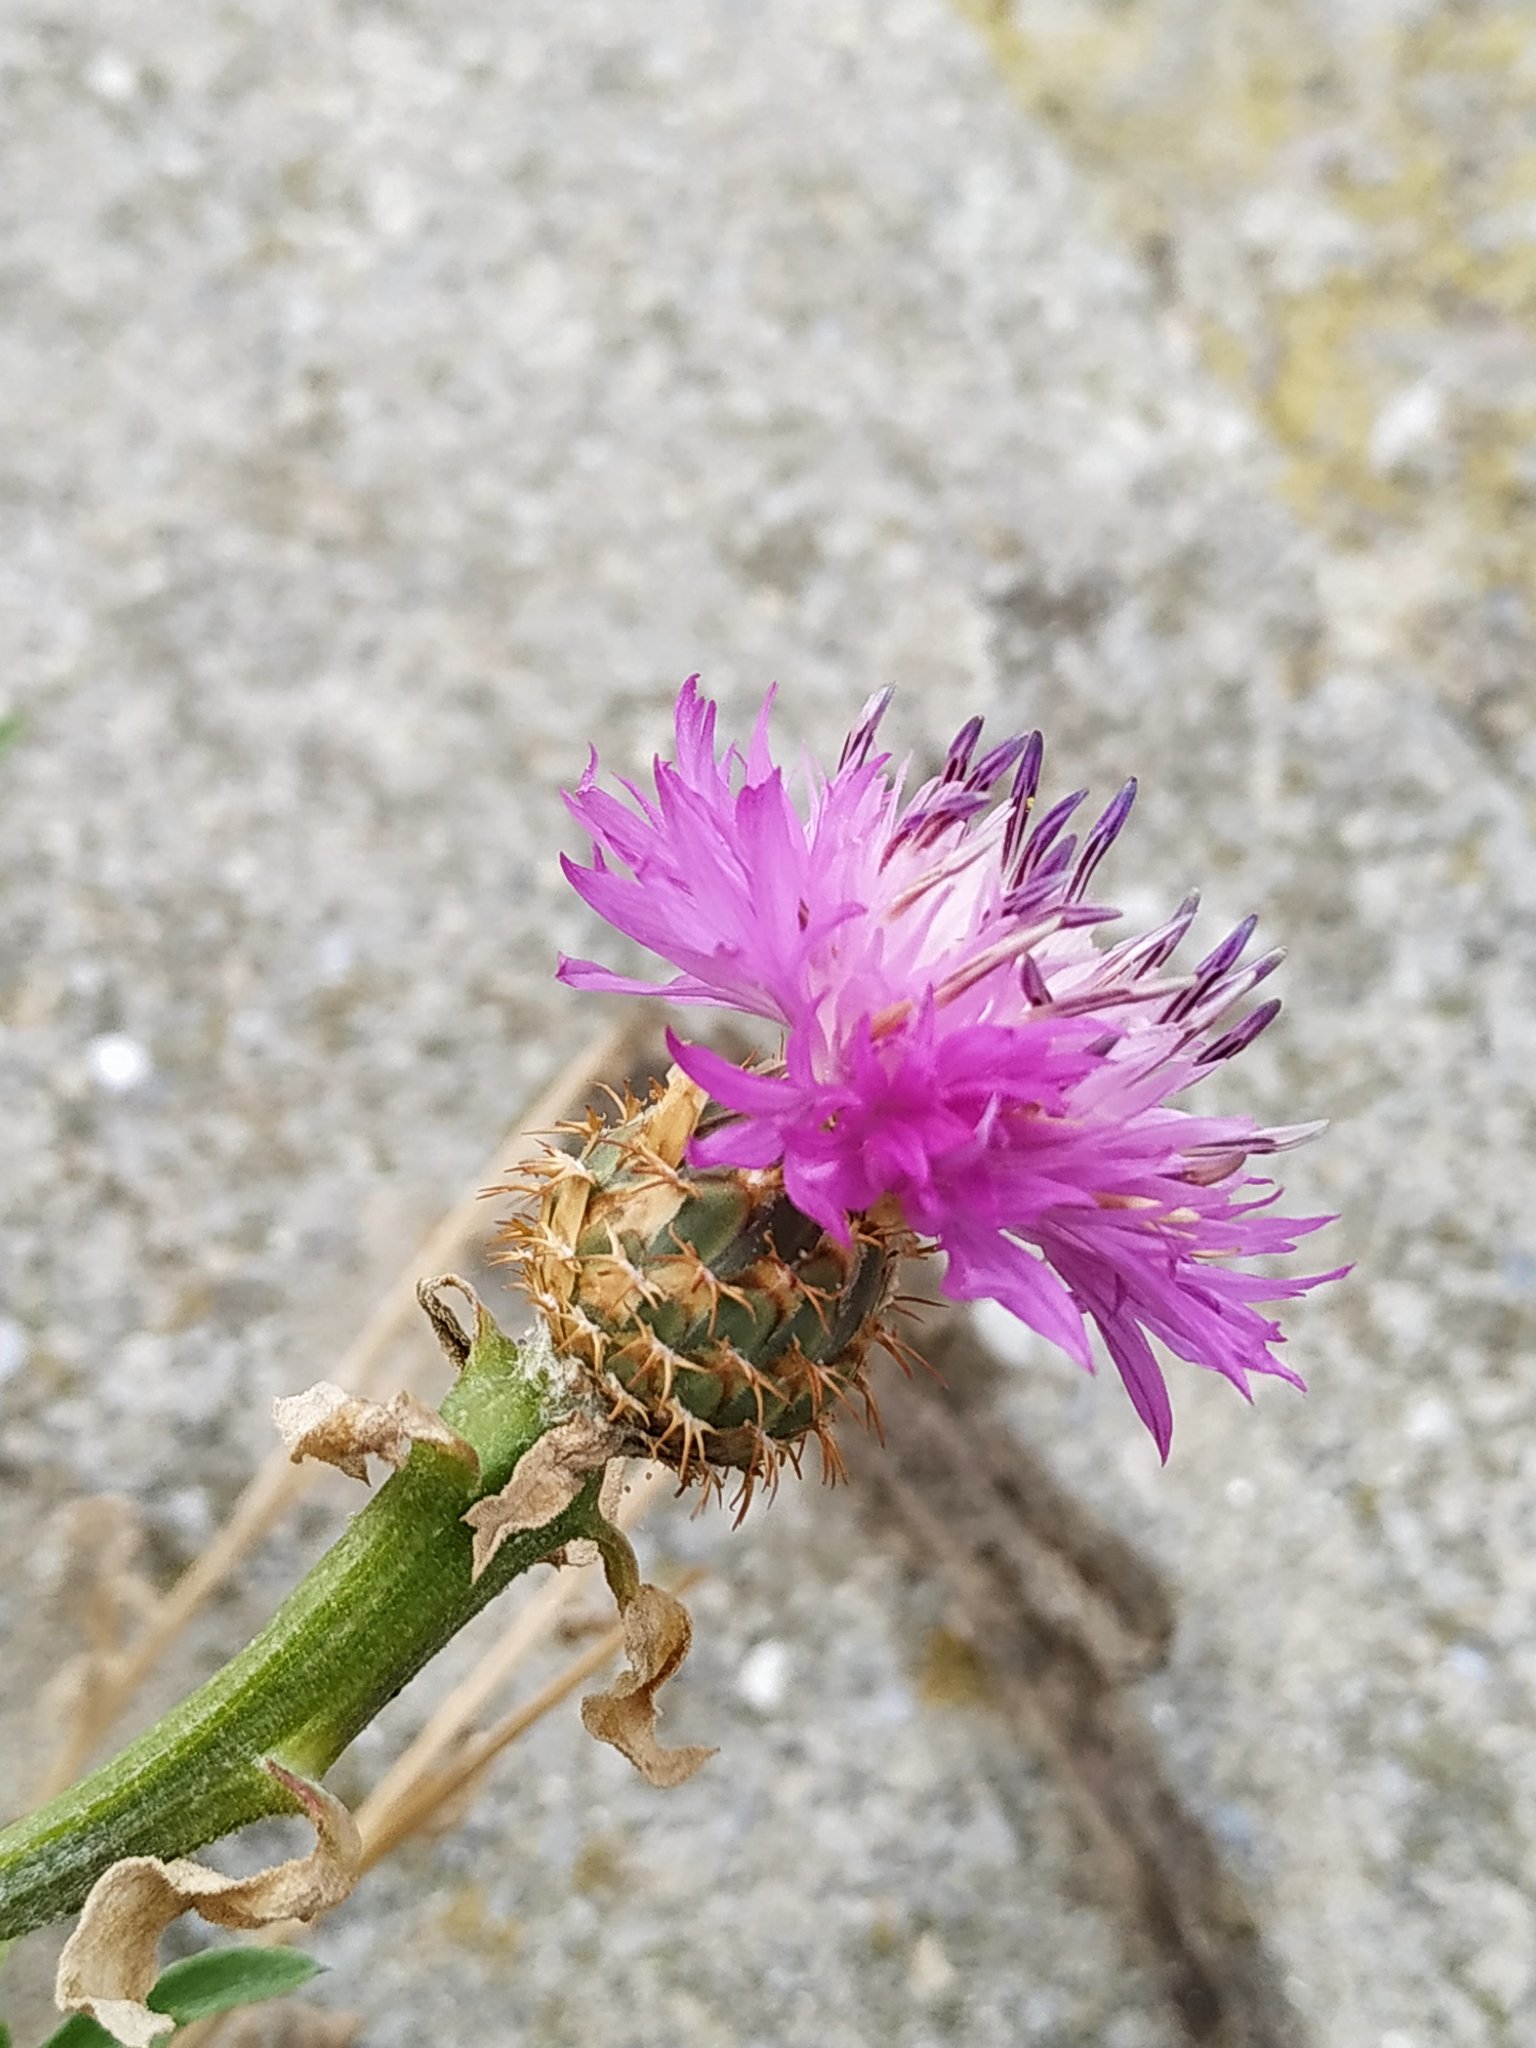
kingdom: Plantae
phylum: Tracheophyta
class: Magnoliopsida
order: Asterales
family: Asteraceae
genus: Centaurea
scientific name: Centaurea aspera
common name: Rough star-thistle
